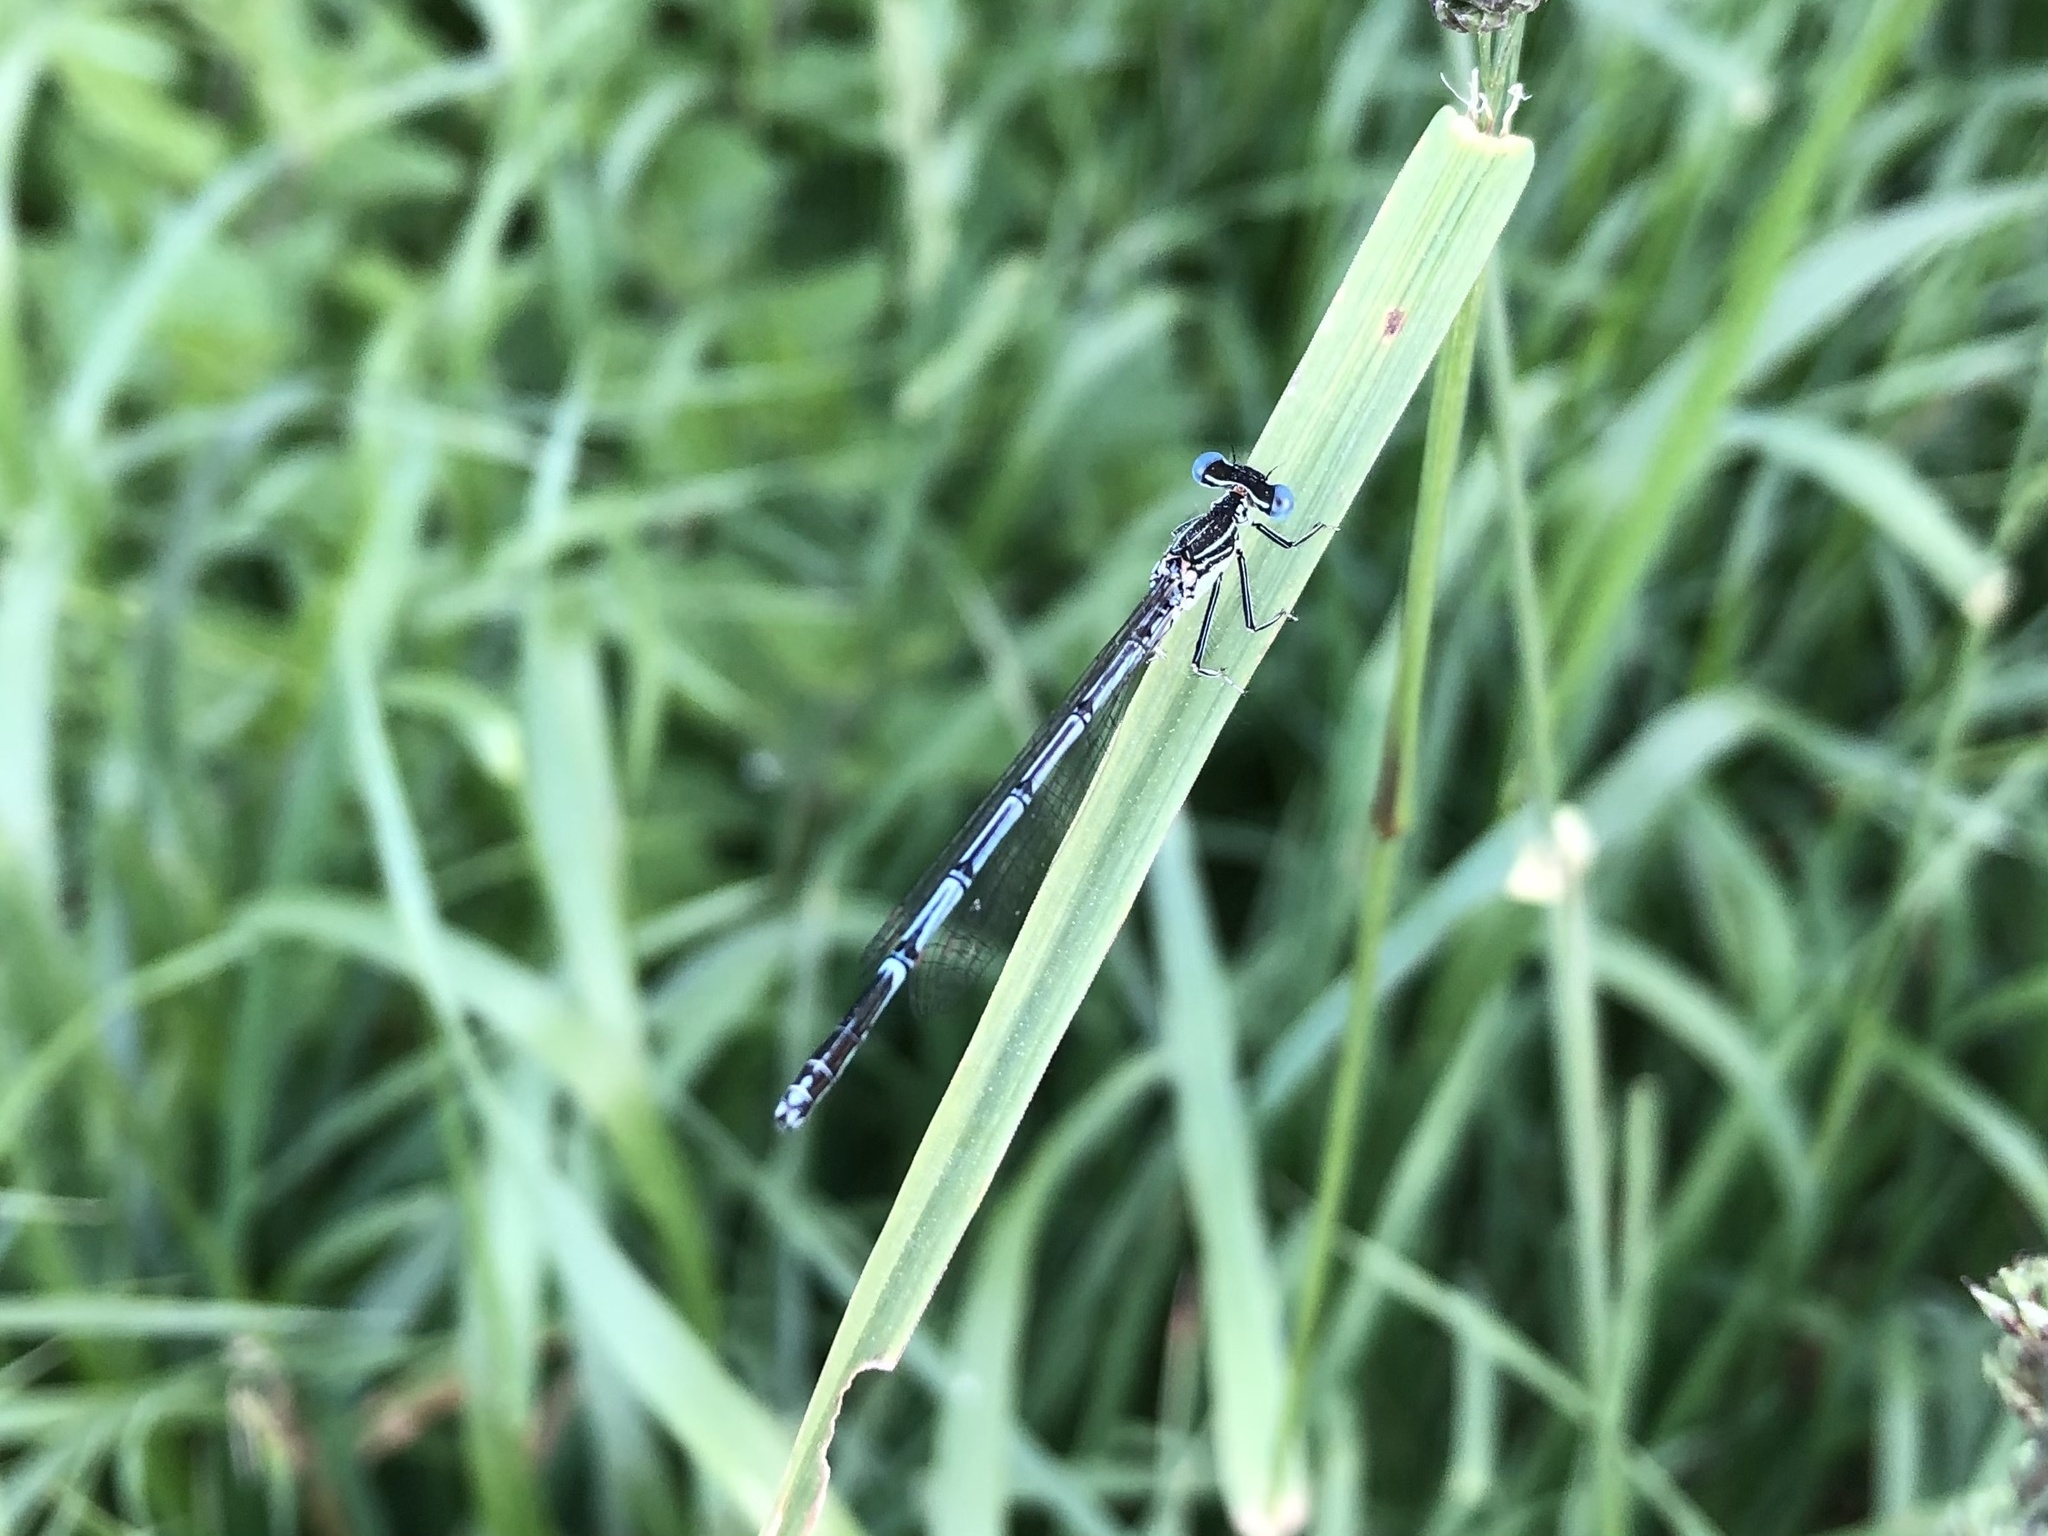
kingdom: Animalia
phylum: Arthropoda
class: Insecta
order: Odonata
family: Platycnemididae
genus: Platycnemis
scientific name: Platycnemis pennipes
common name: White-legged damselfly
